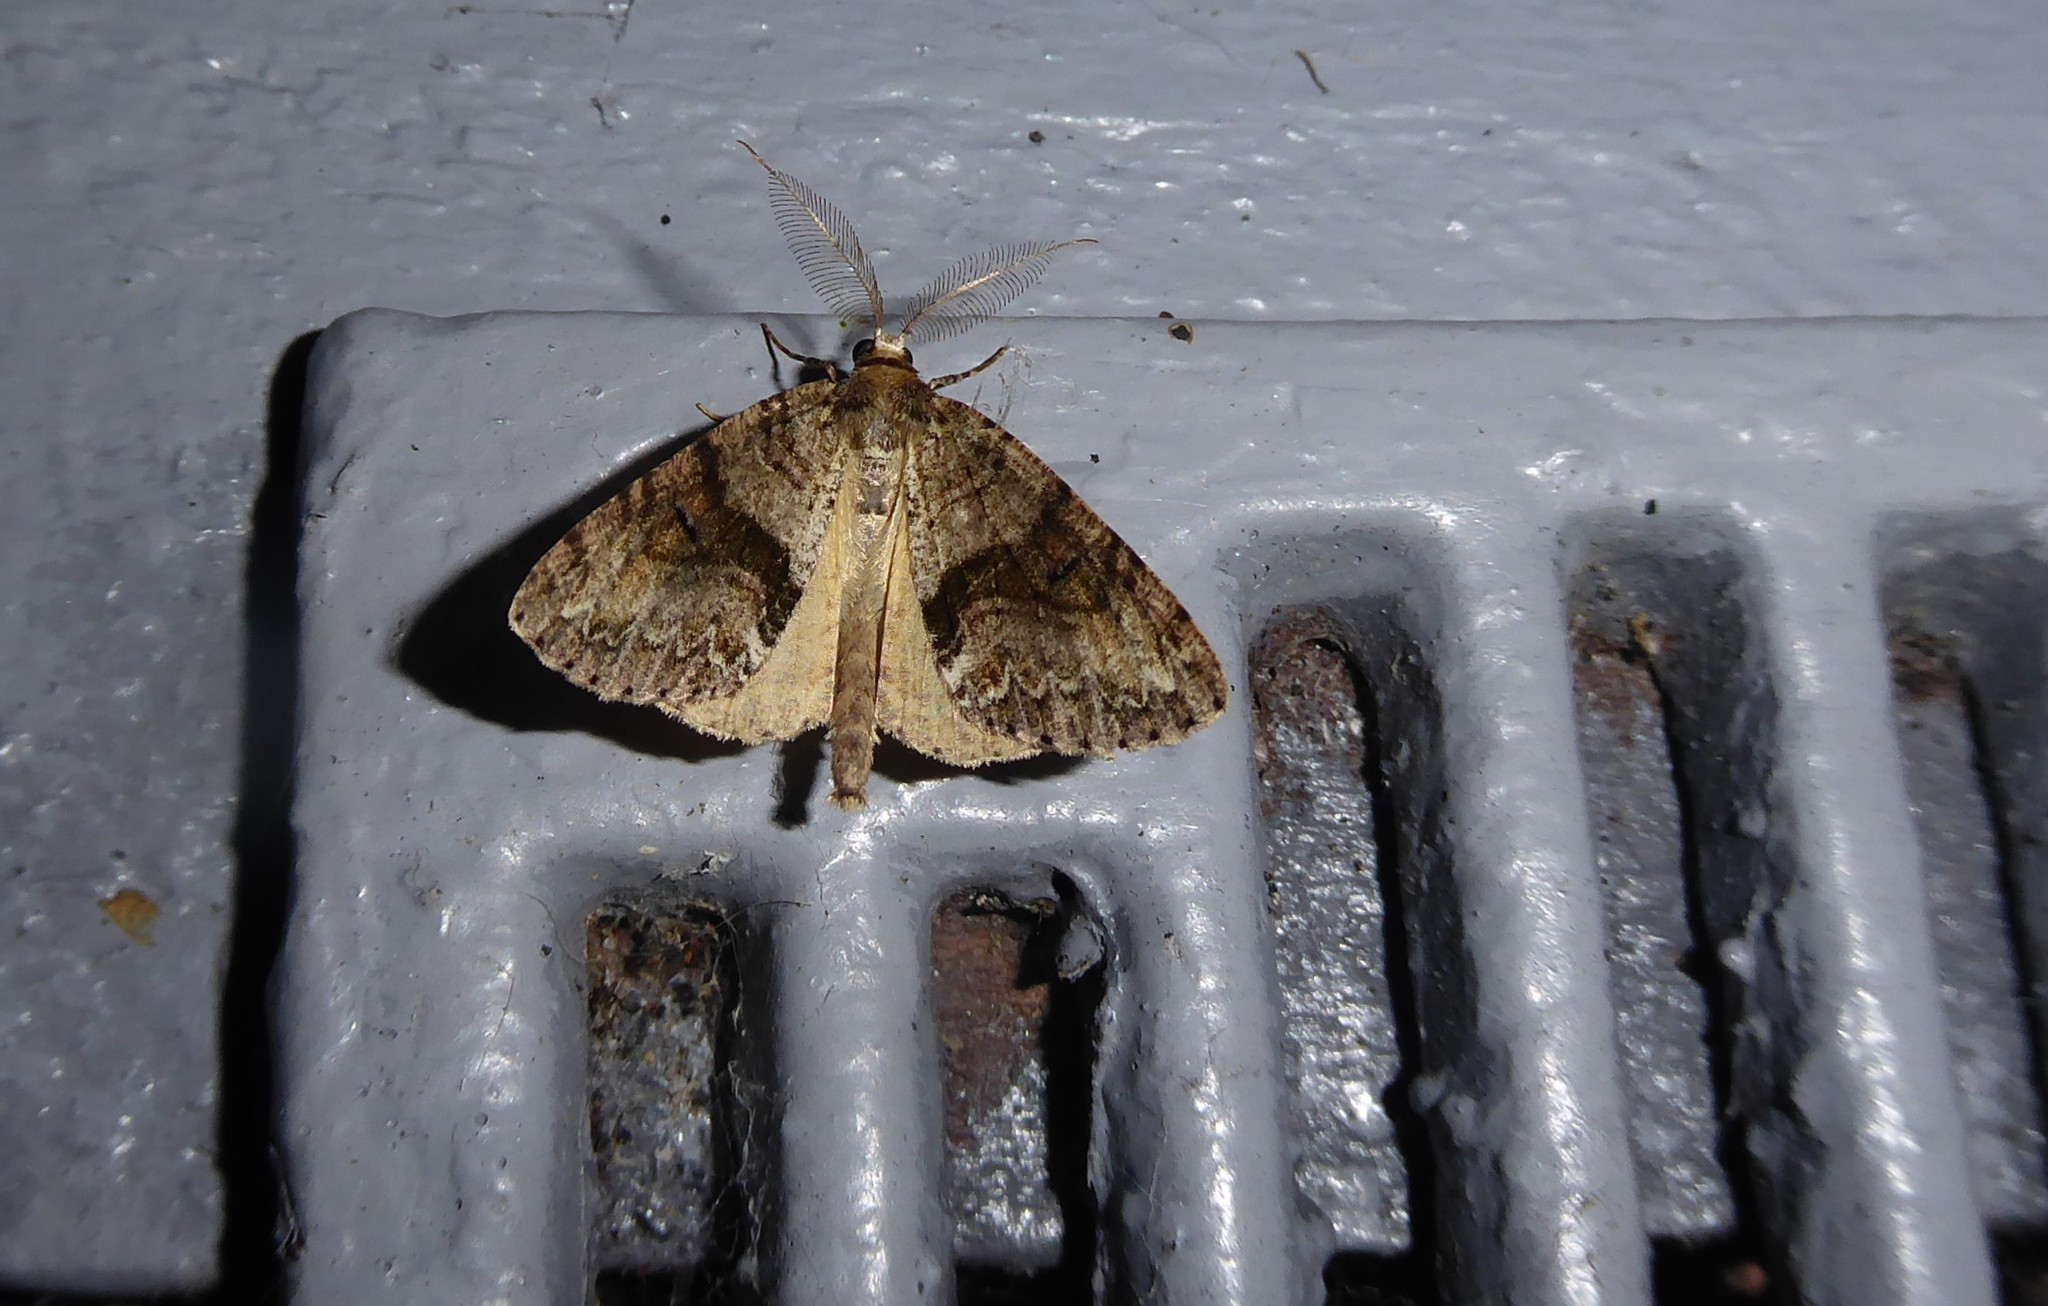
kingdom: Animalia
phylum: Arthropoda
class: Insecta
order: Lepidoptera
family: Geometridae
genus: Pseudocoremia
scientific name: Pseudocoremia suavis
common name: Common forest looper
